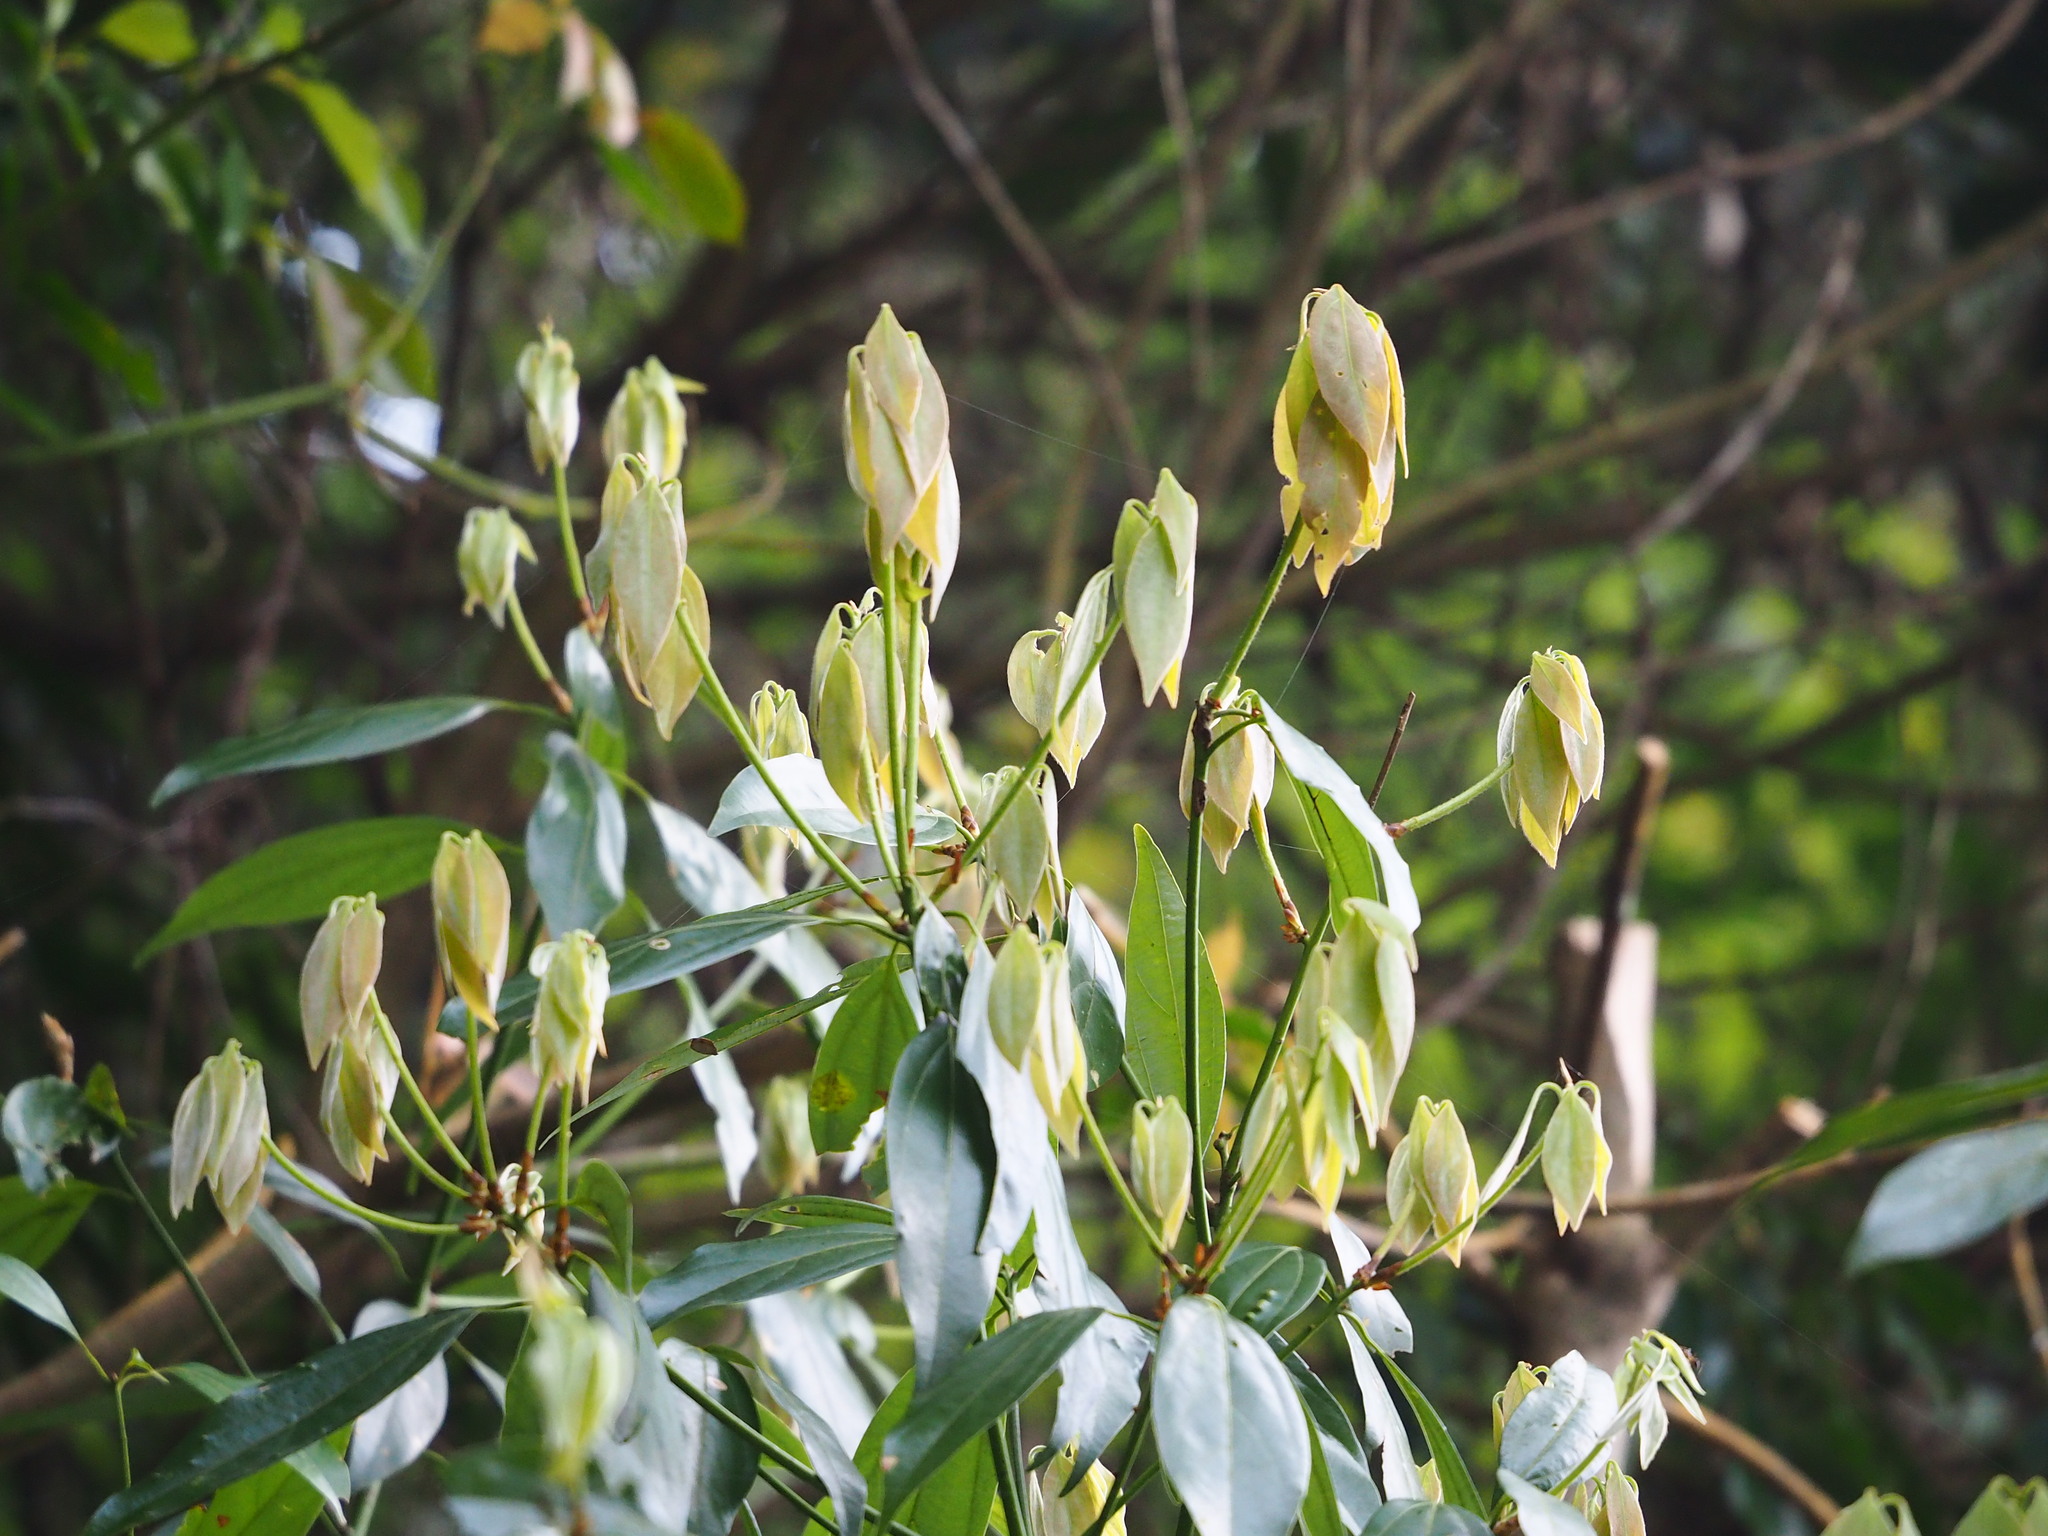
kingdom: Plantae
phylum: Tracheophyta
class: Magnoliopsida
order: Laurales
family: Lauraceae
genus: Neolitsea
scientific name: Neolitsea variabillima
